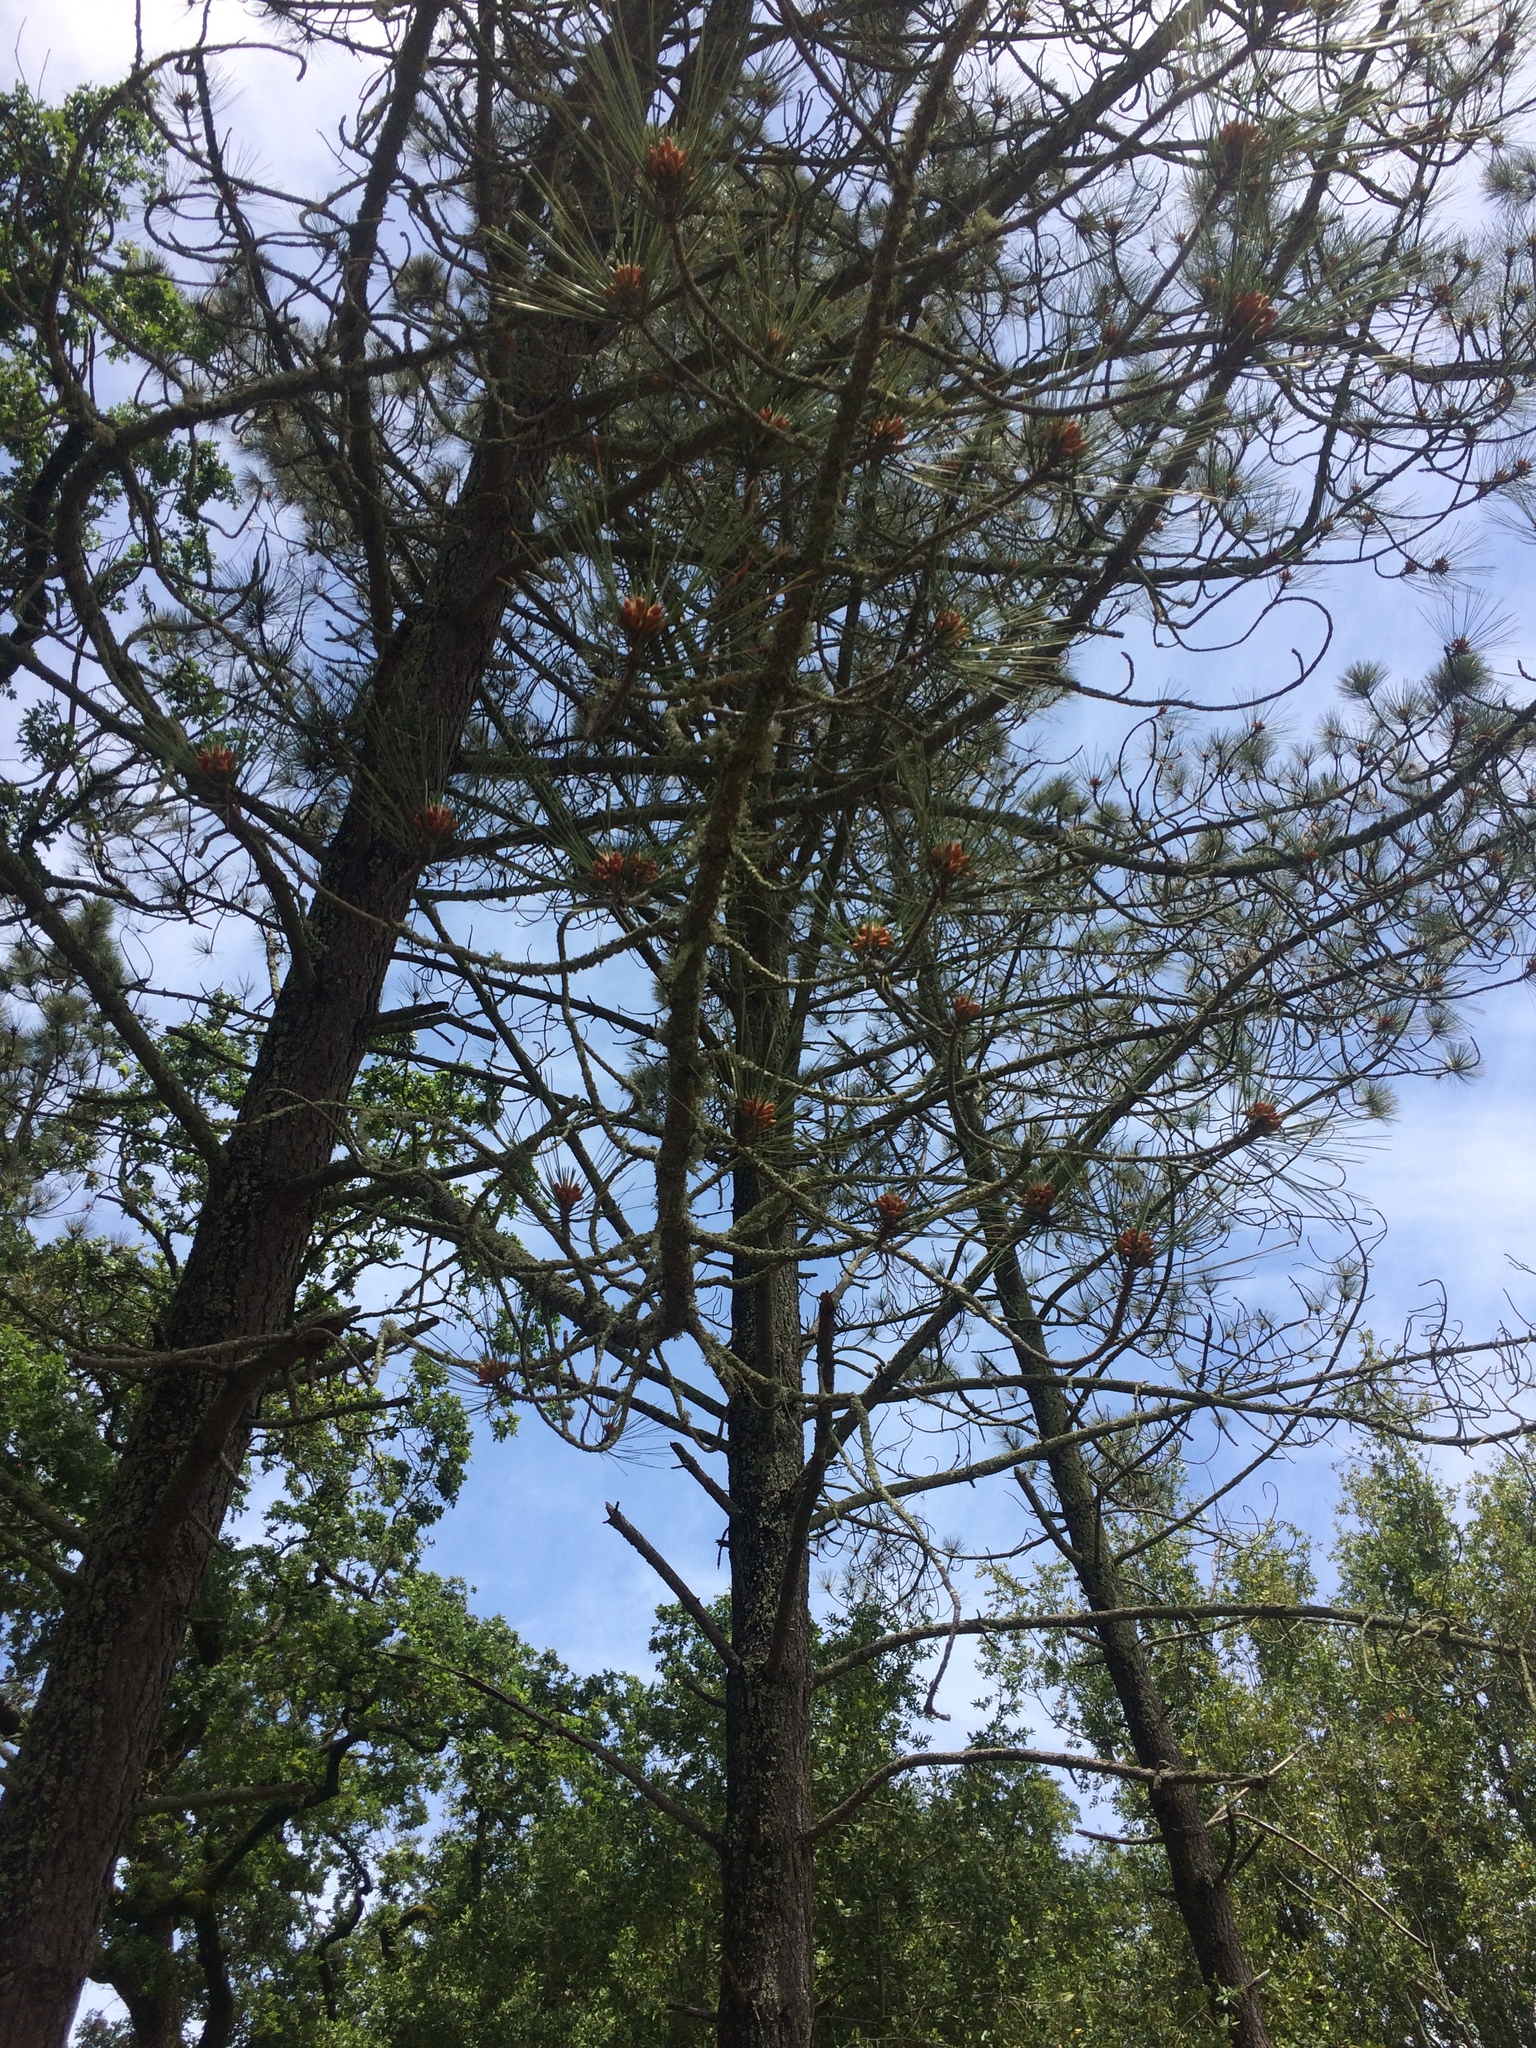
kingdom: Plantae
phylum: Tracheophyta
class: Pinopsida
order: Pinales
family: Pinaceae
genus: Pinus
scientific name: Pinus sabiniana
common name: Bull pine
